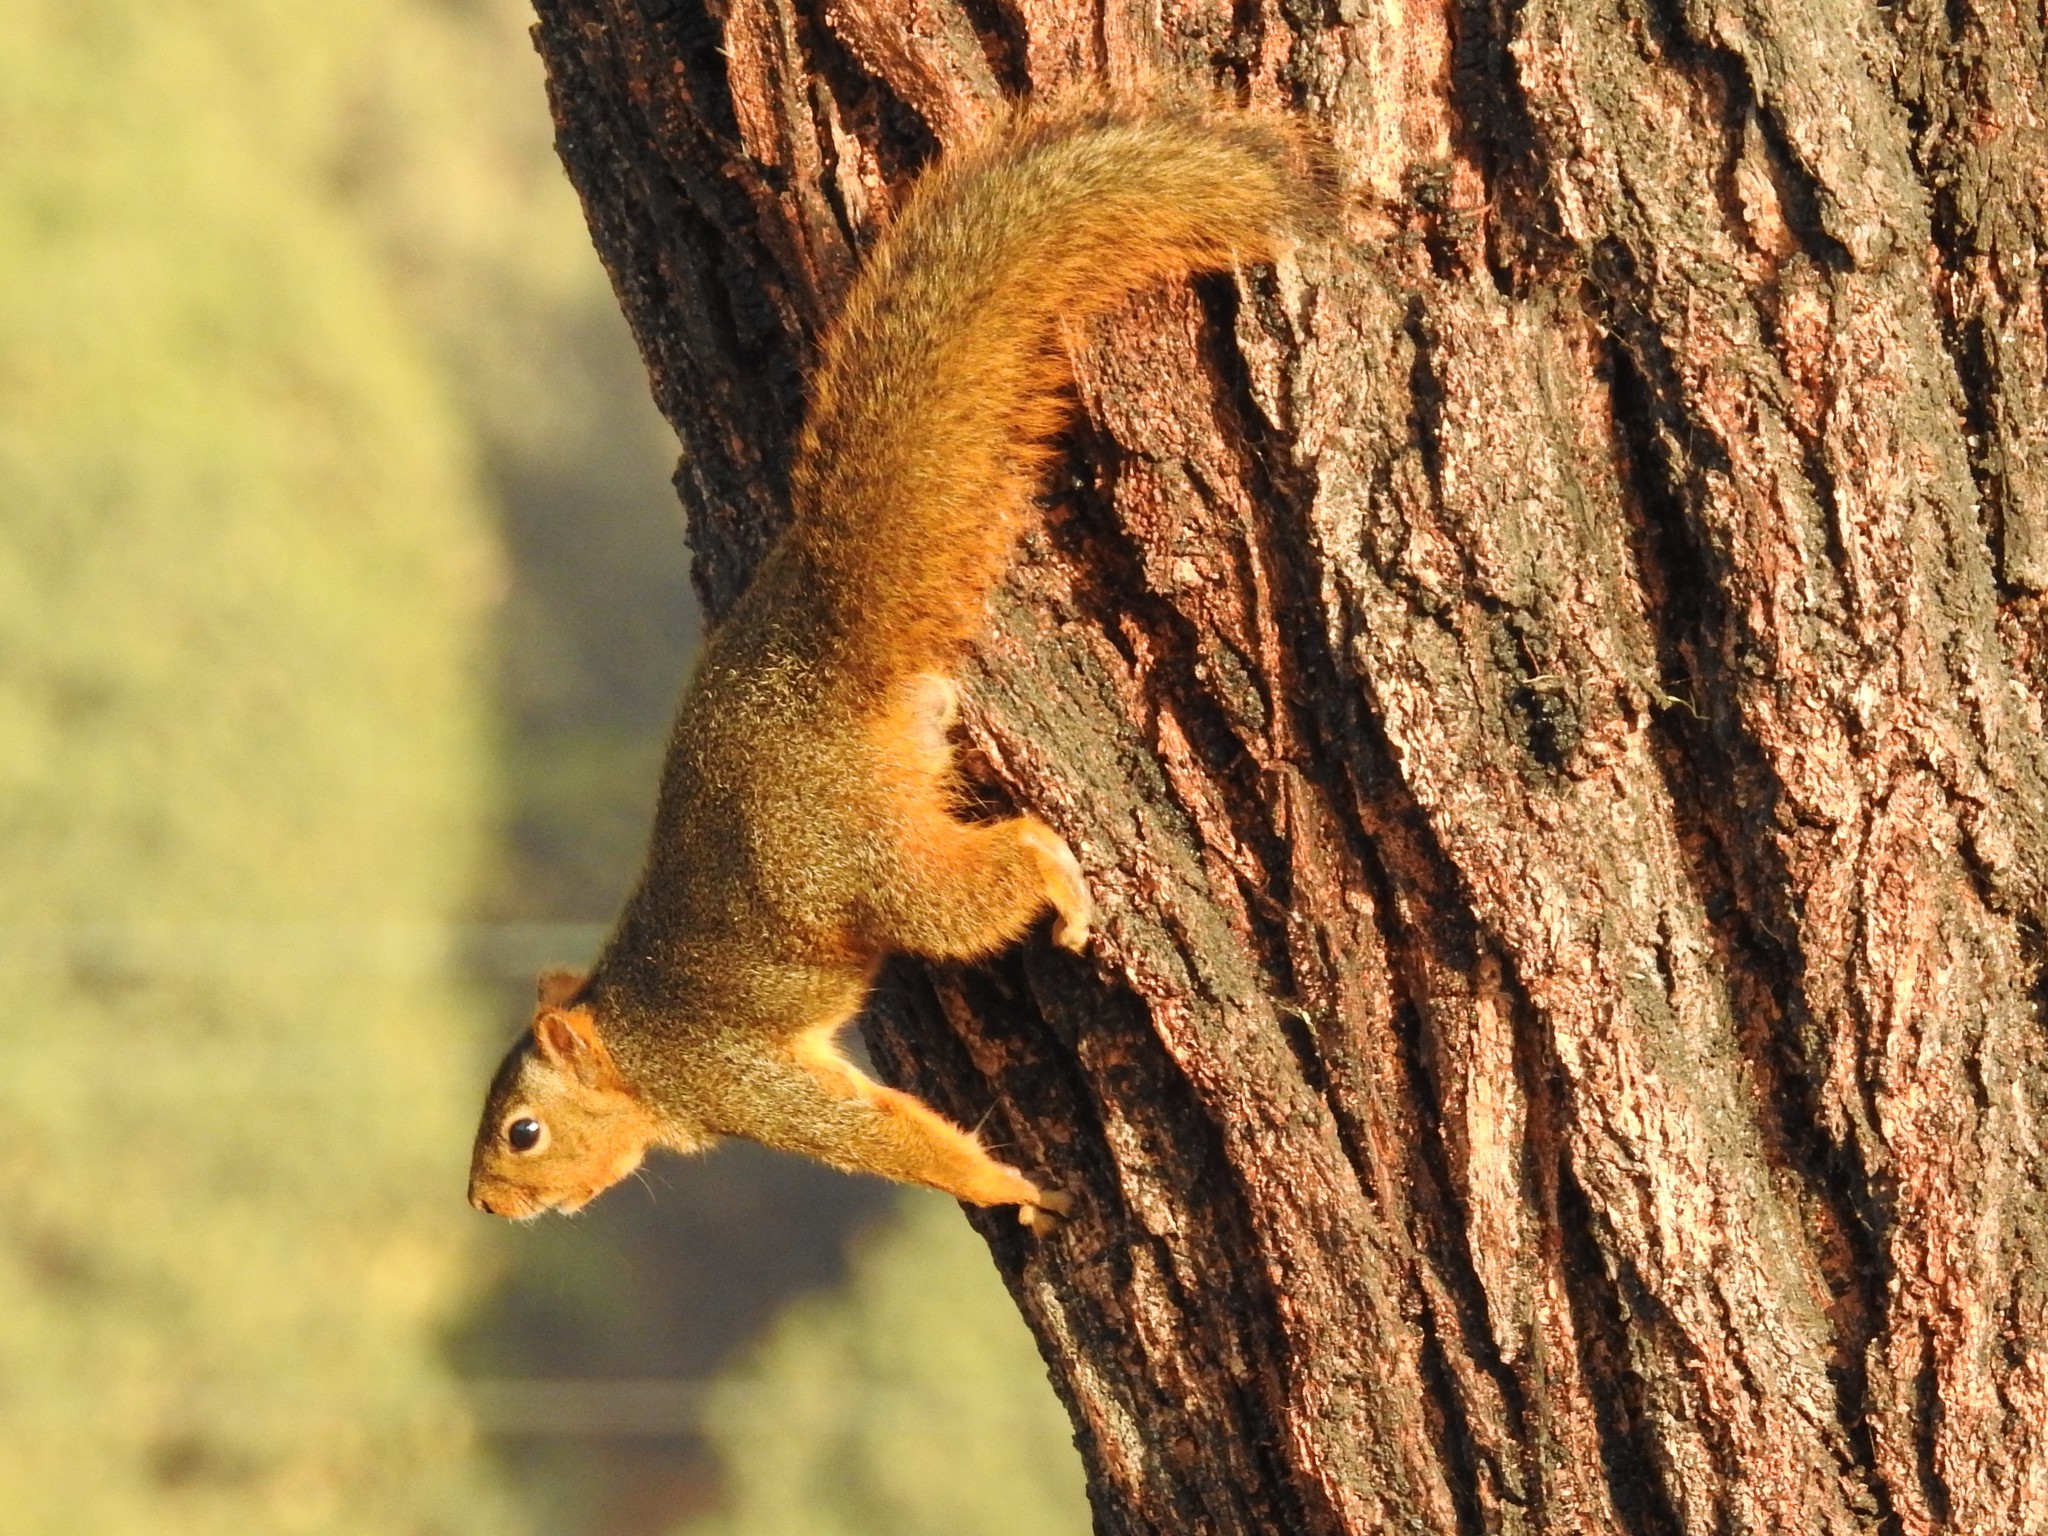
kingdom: Animalia
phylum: Chordata
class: Mammalia
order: Rodentia
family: Sciuridae
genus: Sciurus
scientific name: Sciurus niger
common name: Fox squirrel
